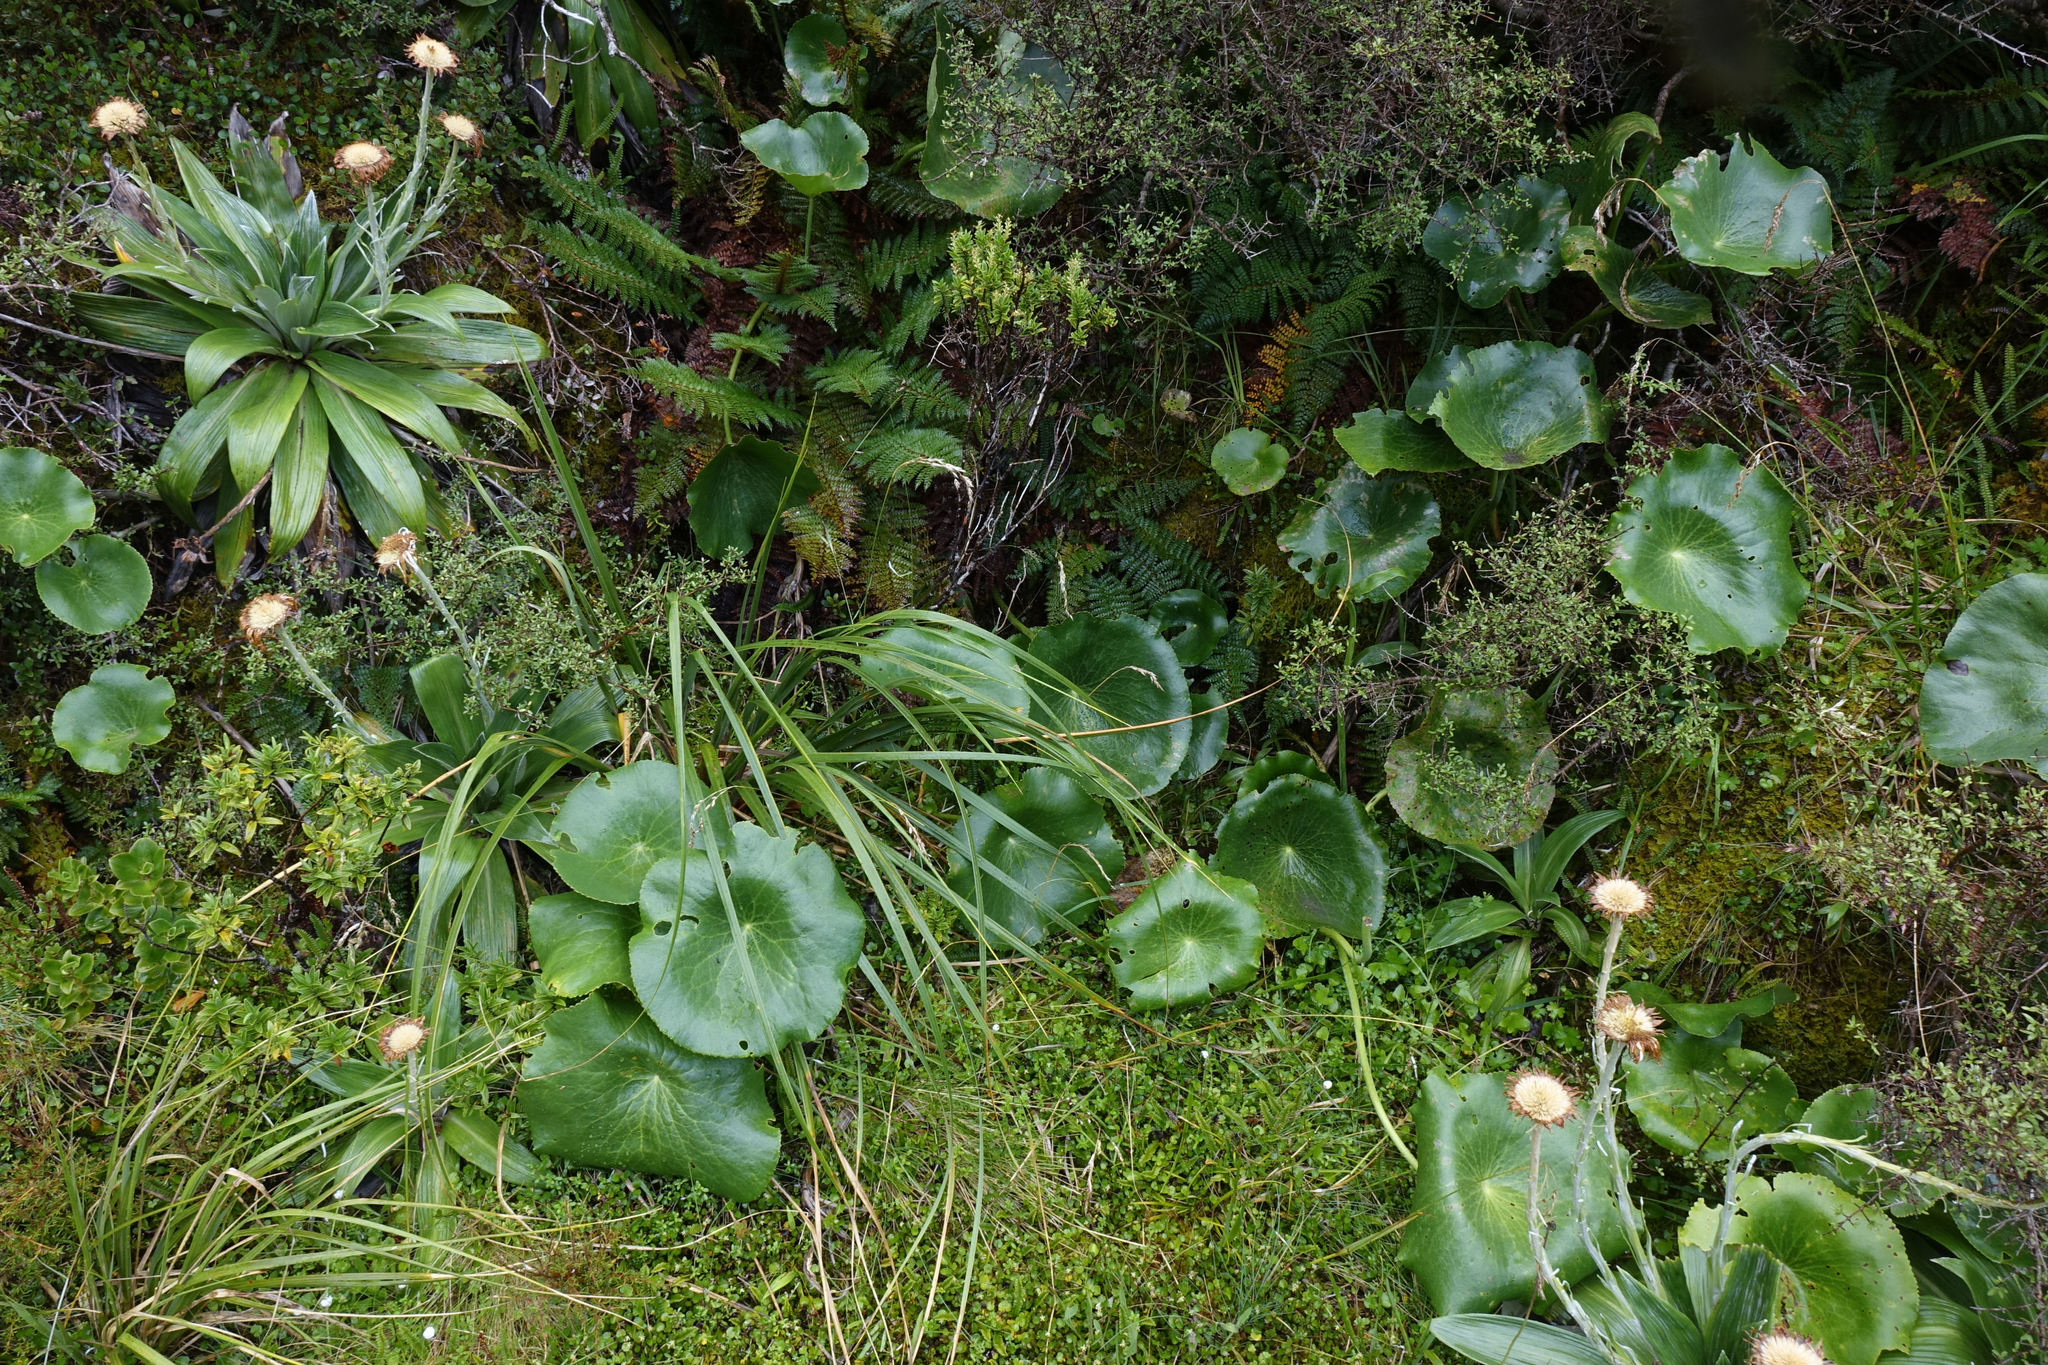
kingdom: Plantae
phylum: Tracheophyta
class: Magnoliopsida
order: Ranunculales
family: Ranunculaceae
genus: Ranunculus
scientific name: Ranunculus lyallii
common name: Mountain-lily
